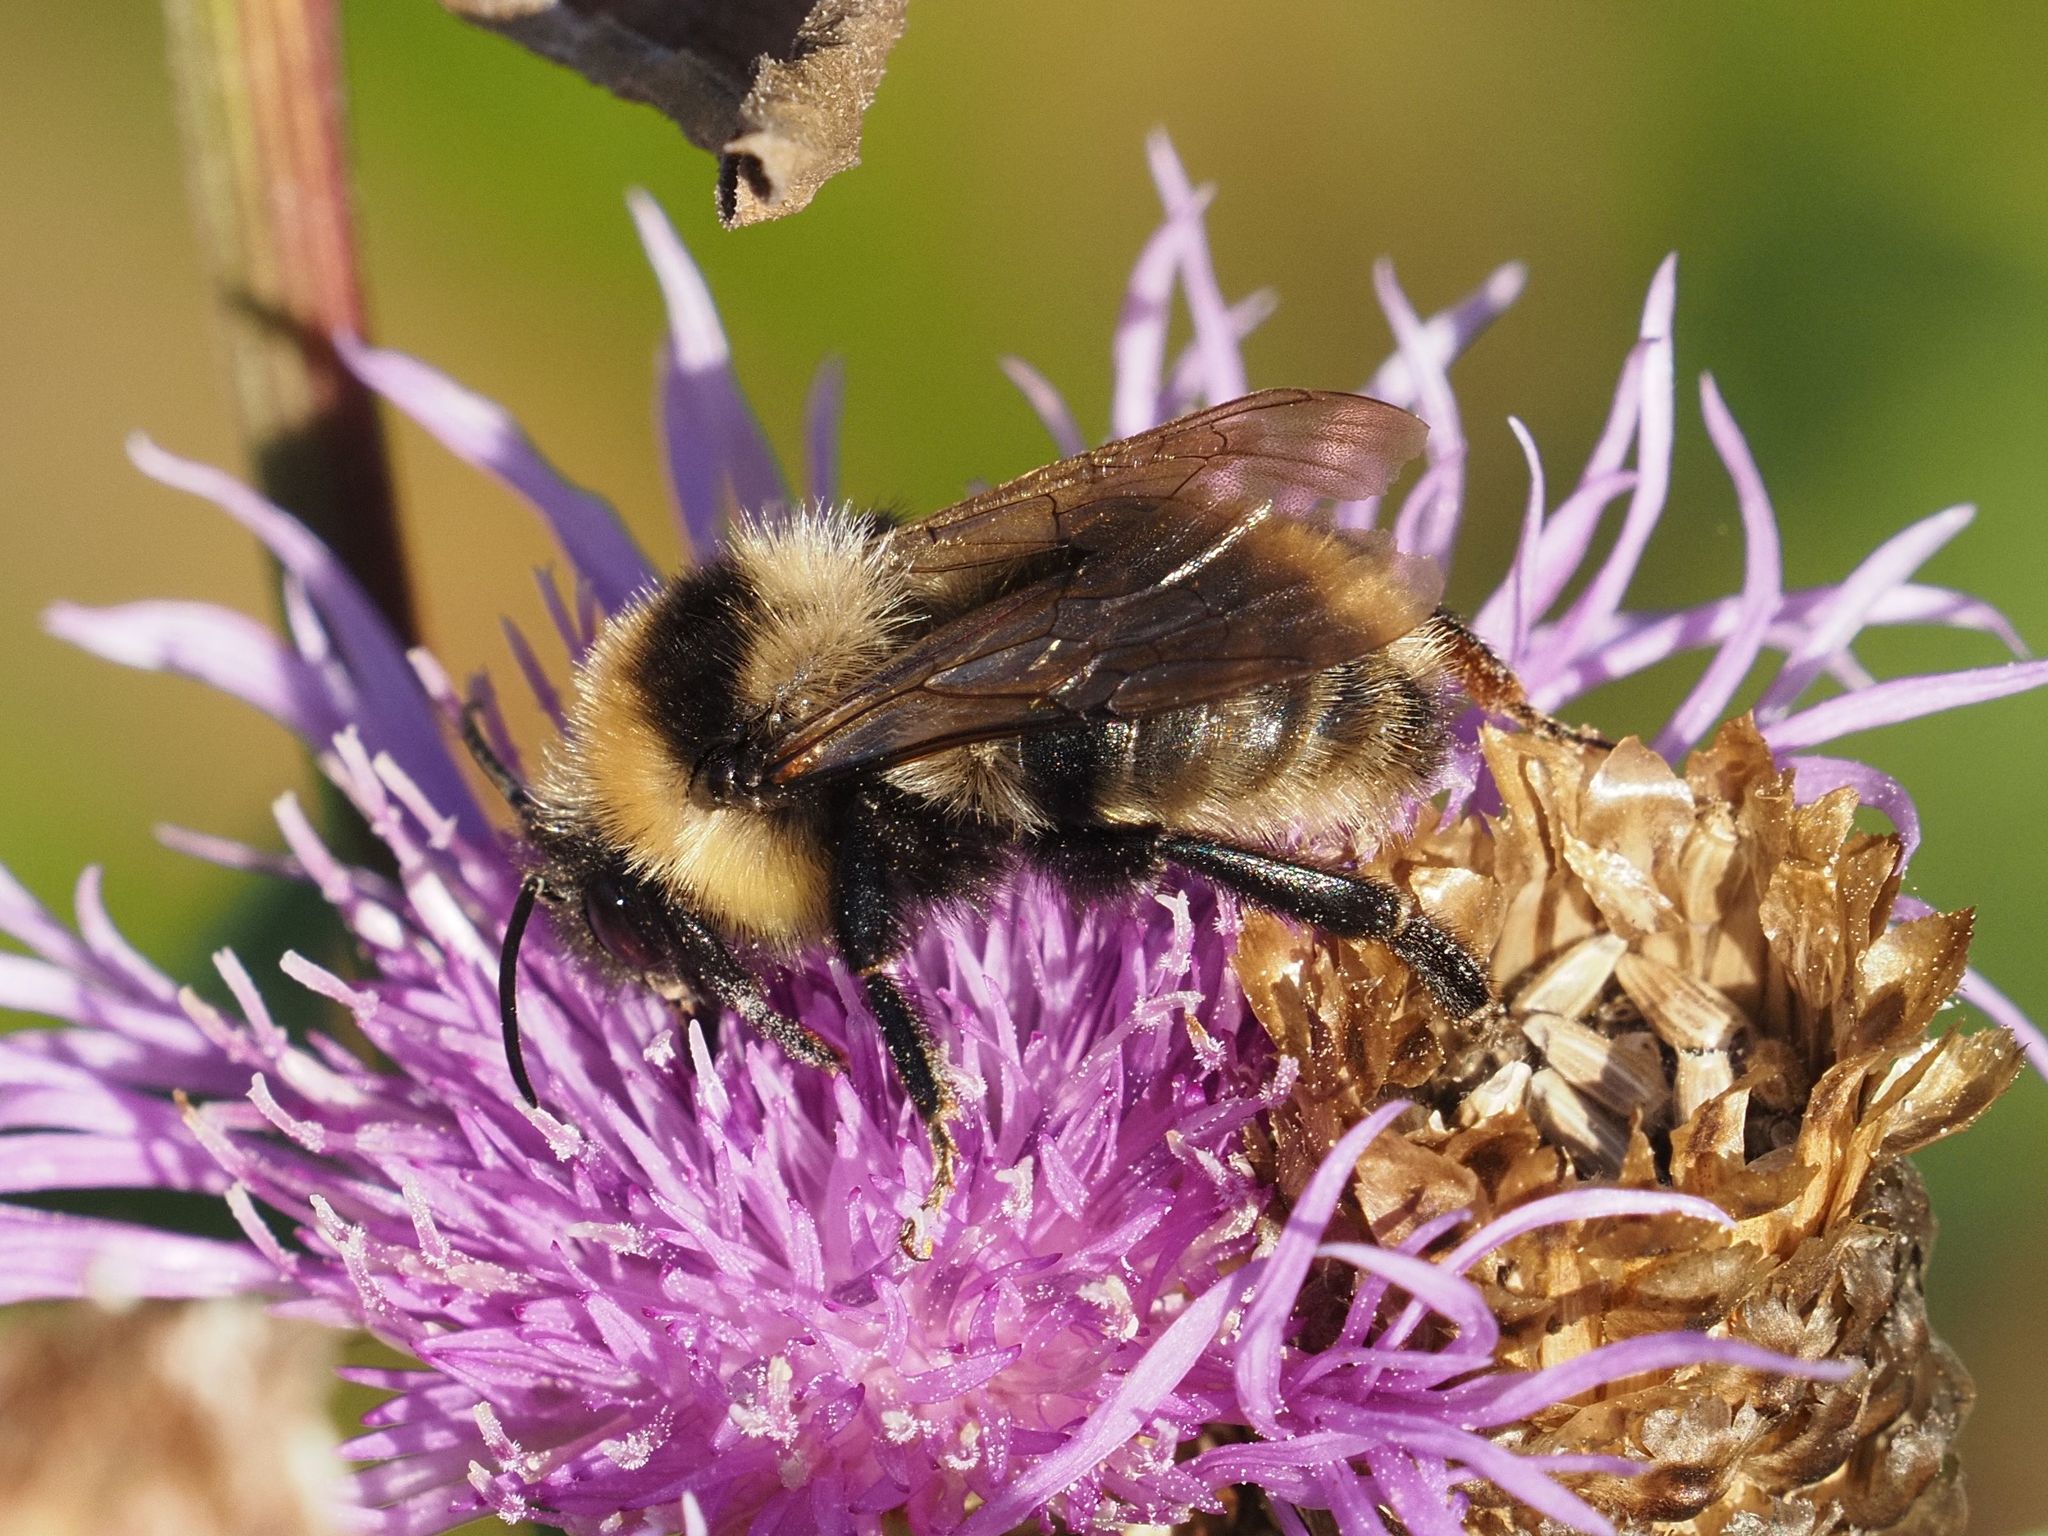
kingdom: Animalia
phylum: Arthropoda
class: Insecta
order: Hymenoptera
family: Apidae
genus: Bombus
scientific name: Bombus campestris
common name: Field cuckoo-bee
